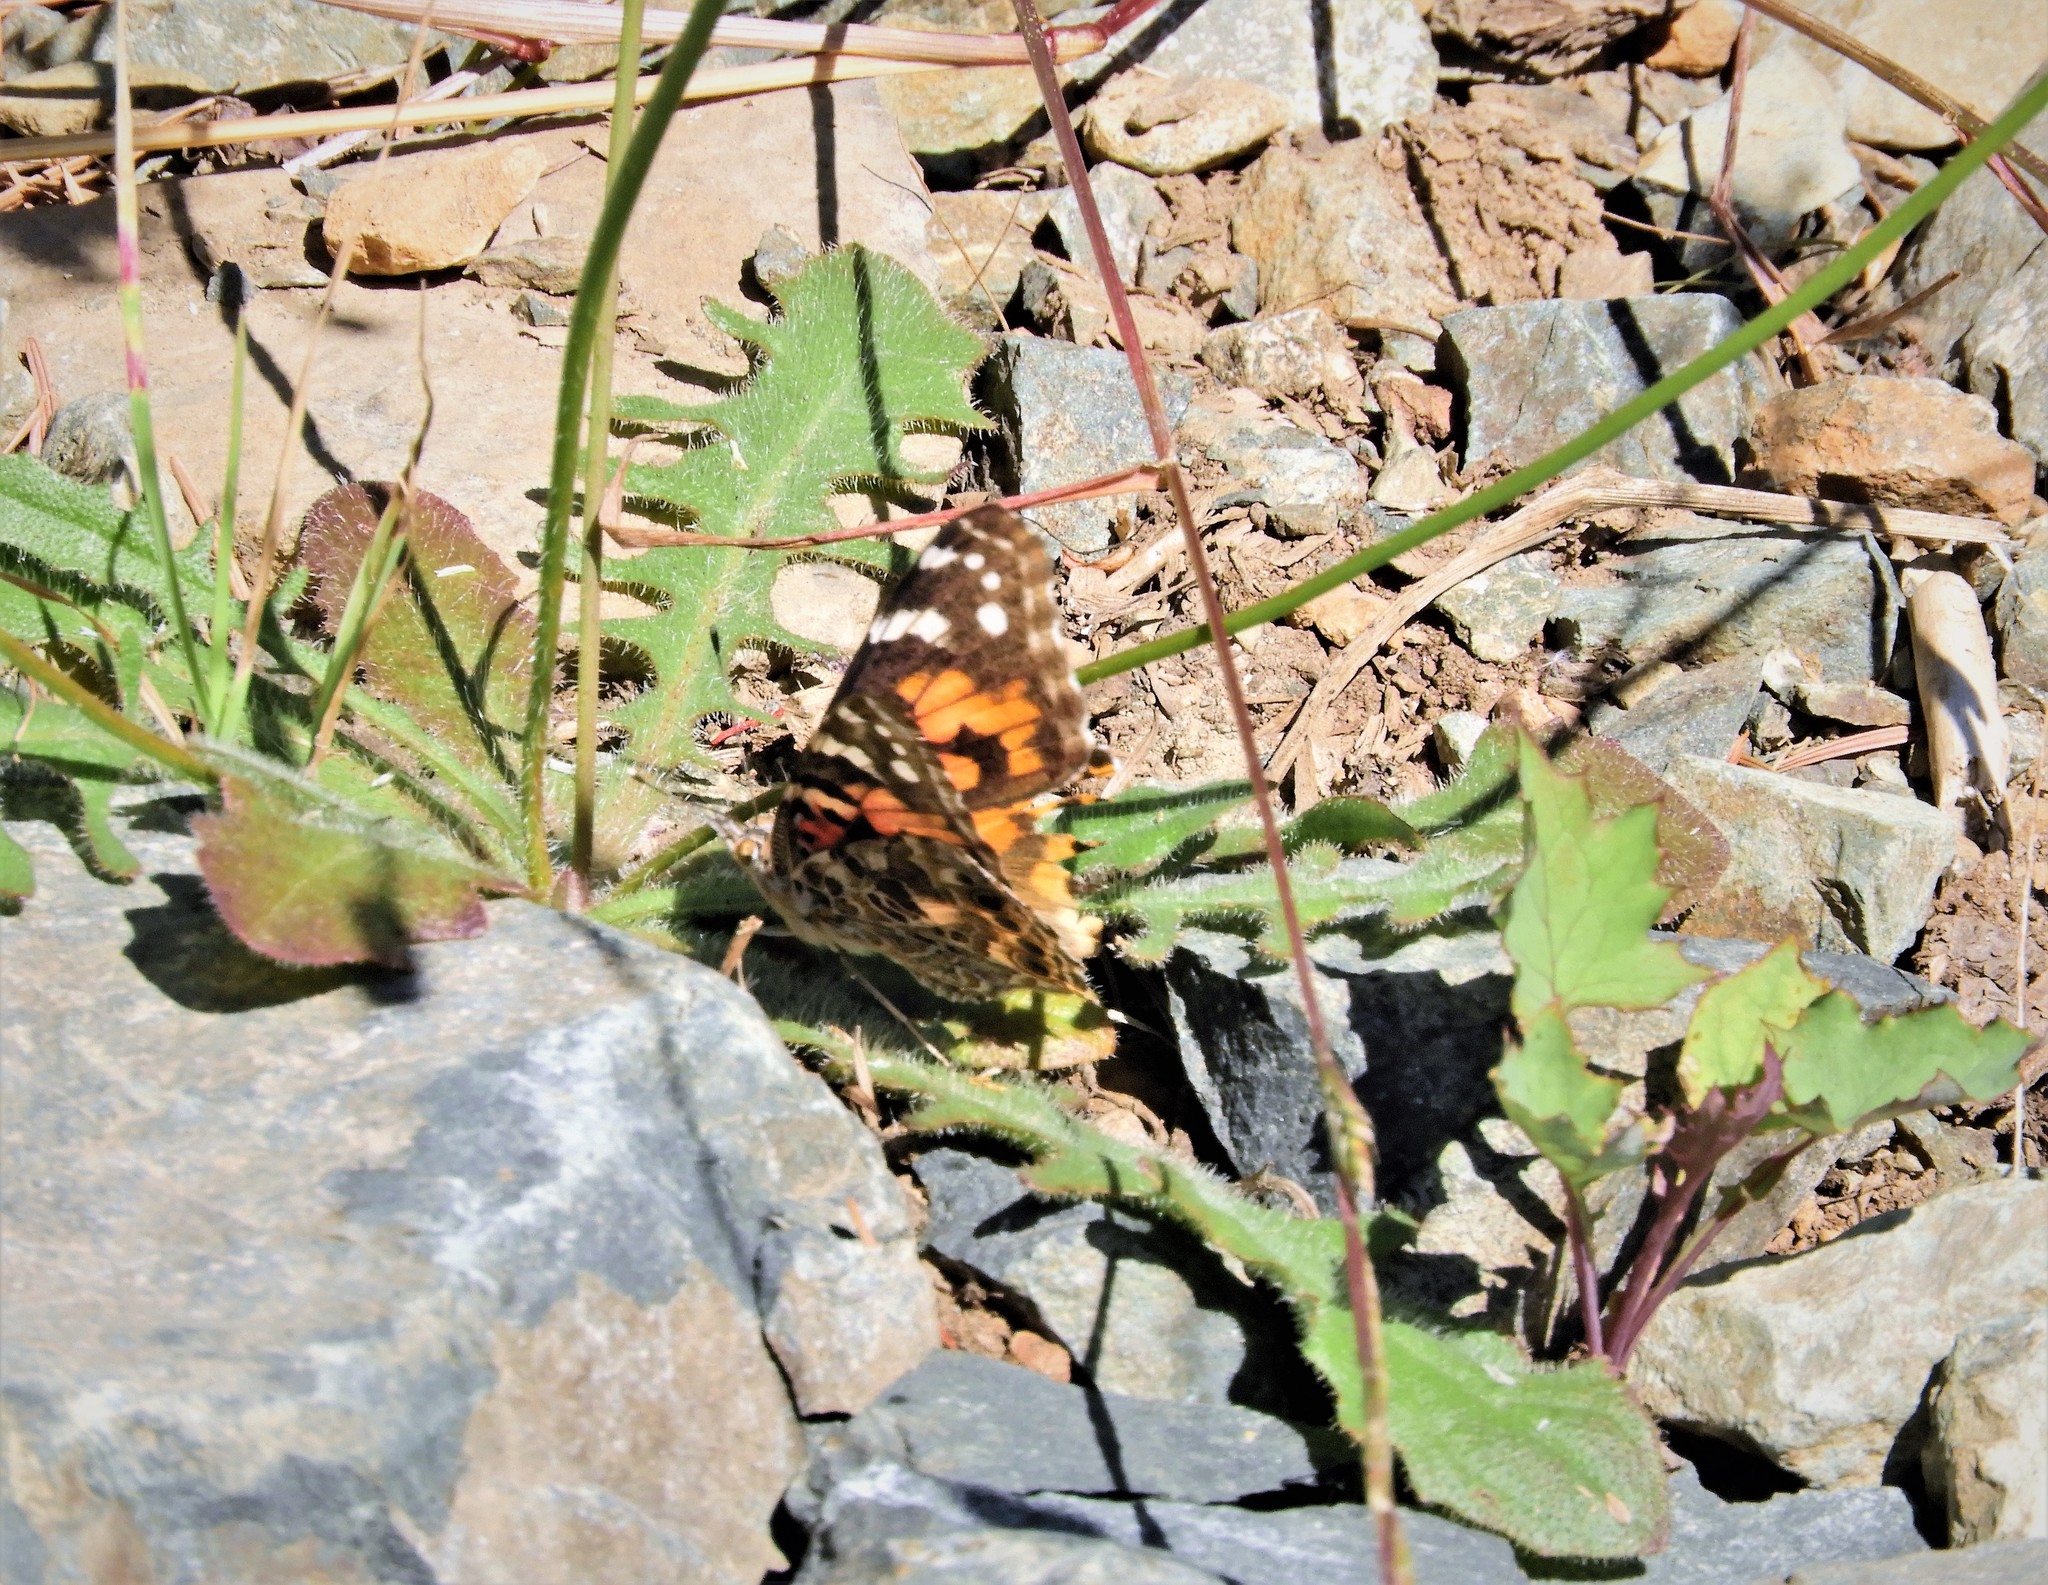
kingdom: Animalia
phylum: Arthropoda
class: Insecta
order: Lepidoptera
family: Nymphalidae
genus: Vanessa
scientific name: Vanessa cardui
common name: Painted lady
